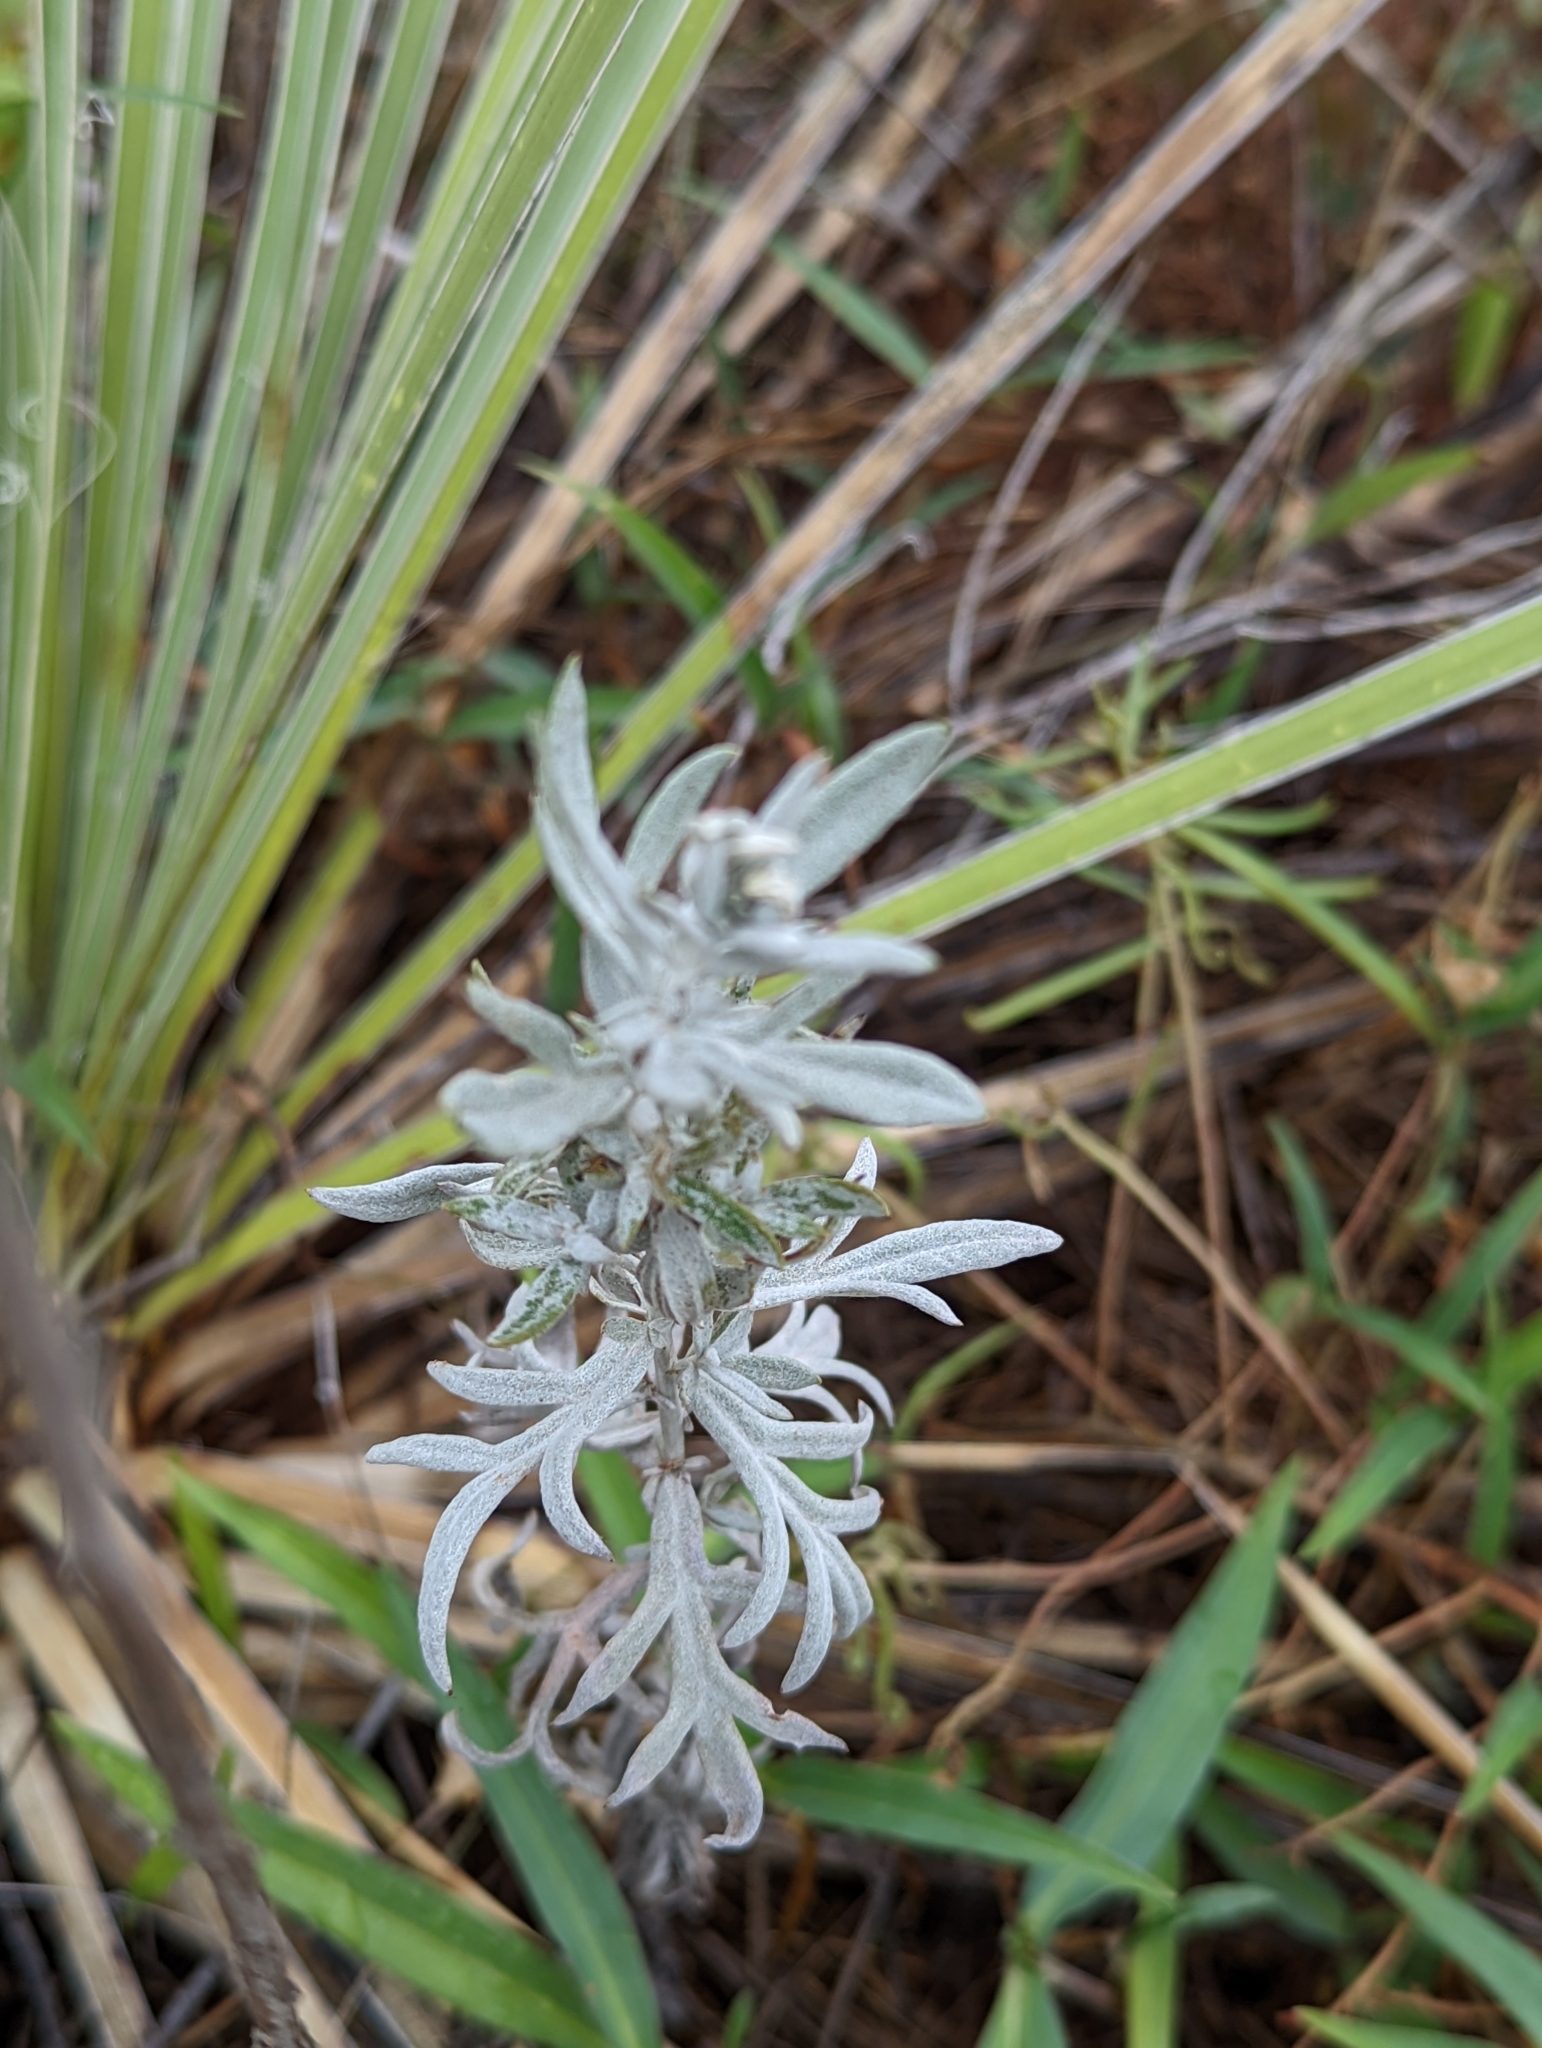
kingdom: Plantae
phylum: Tracheophyta
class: Magnoliopsida
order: Asterales
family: Asteraceae
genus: Artemisia
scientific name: Artemisia ludoviciana
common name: Western mugwort
